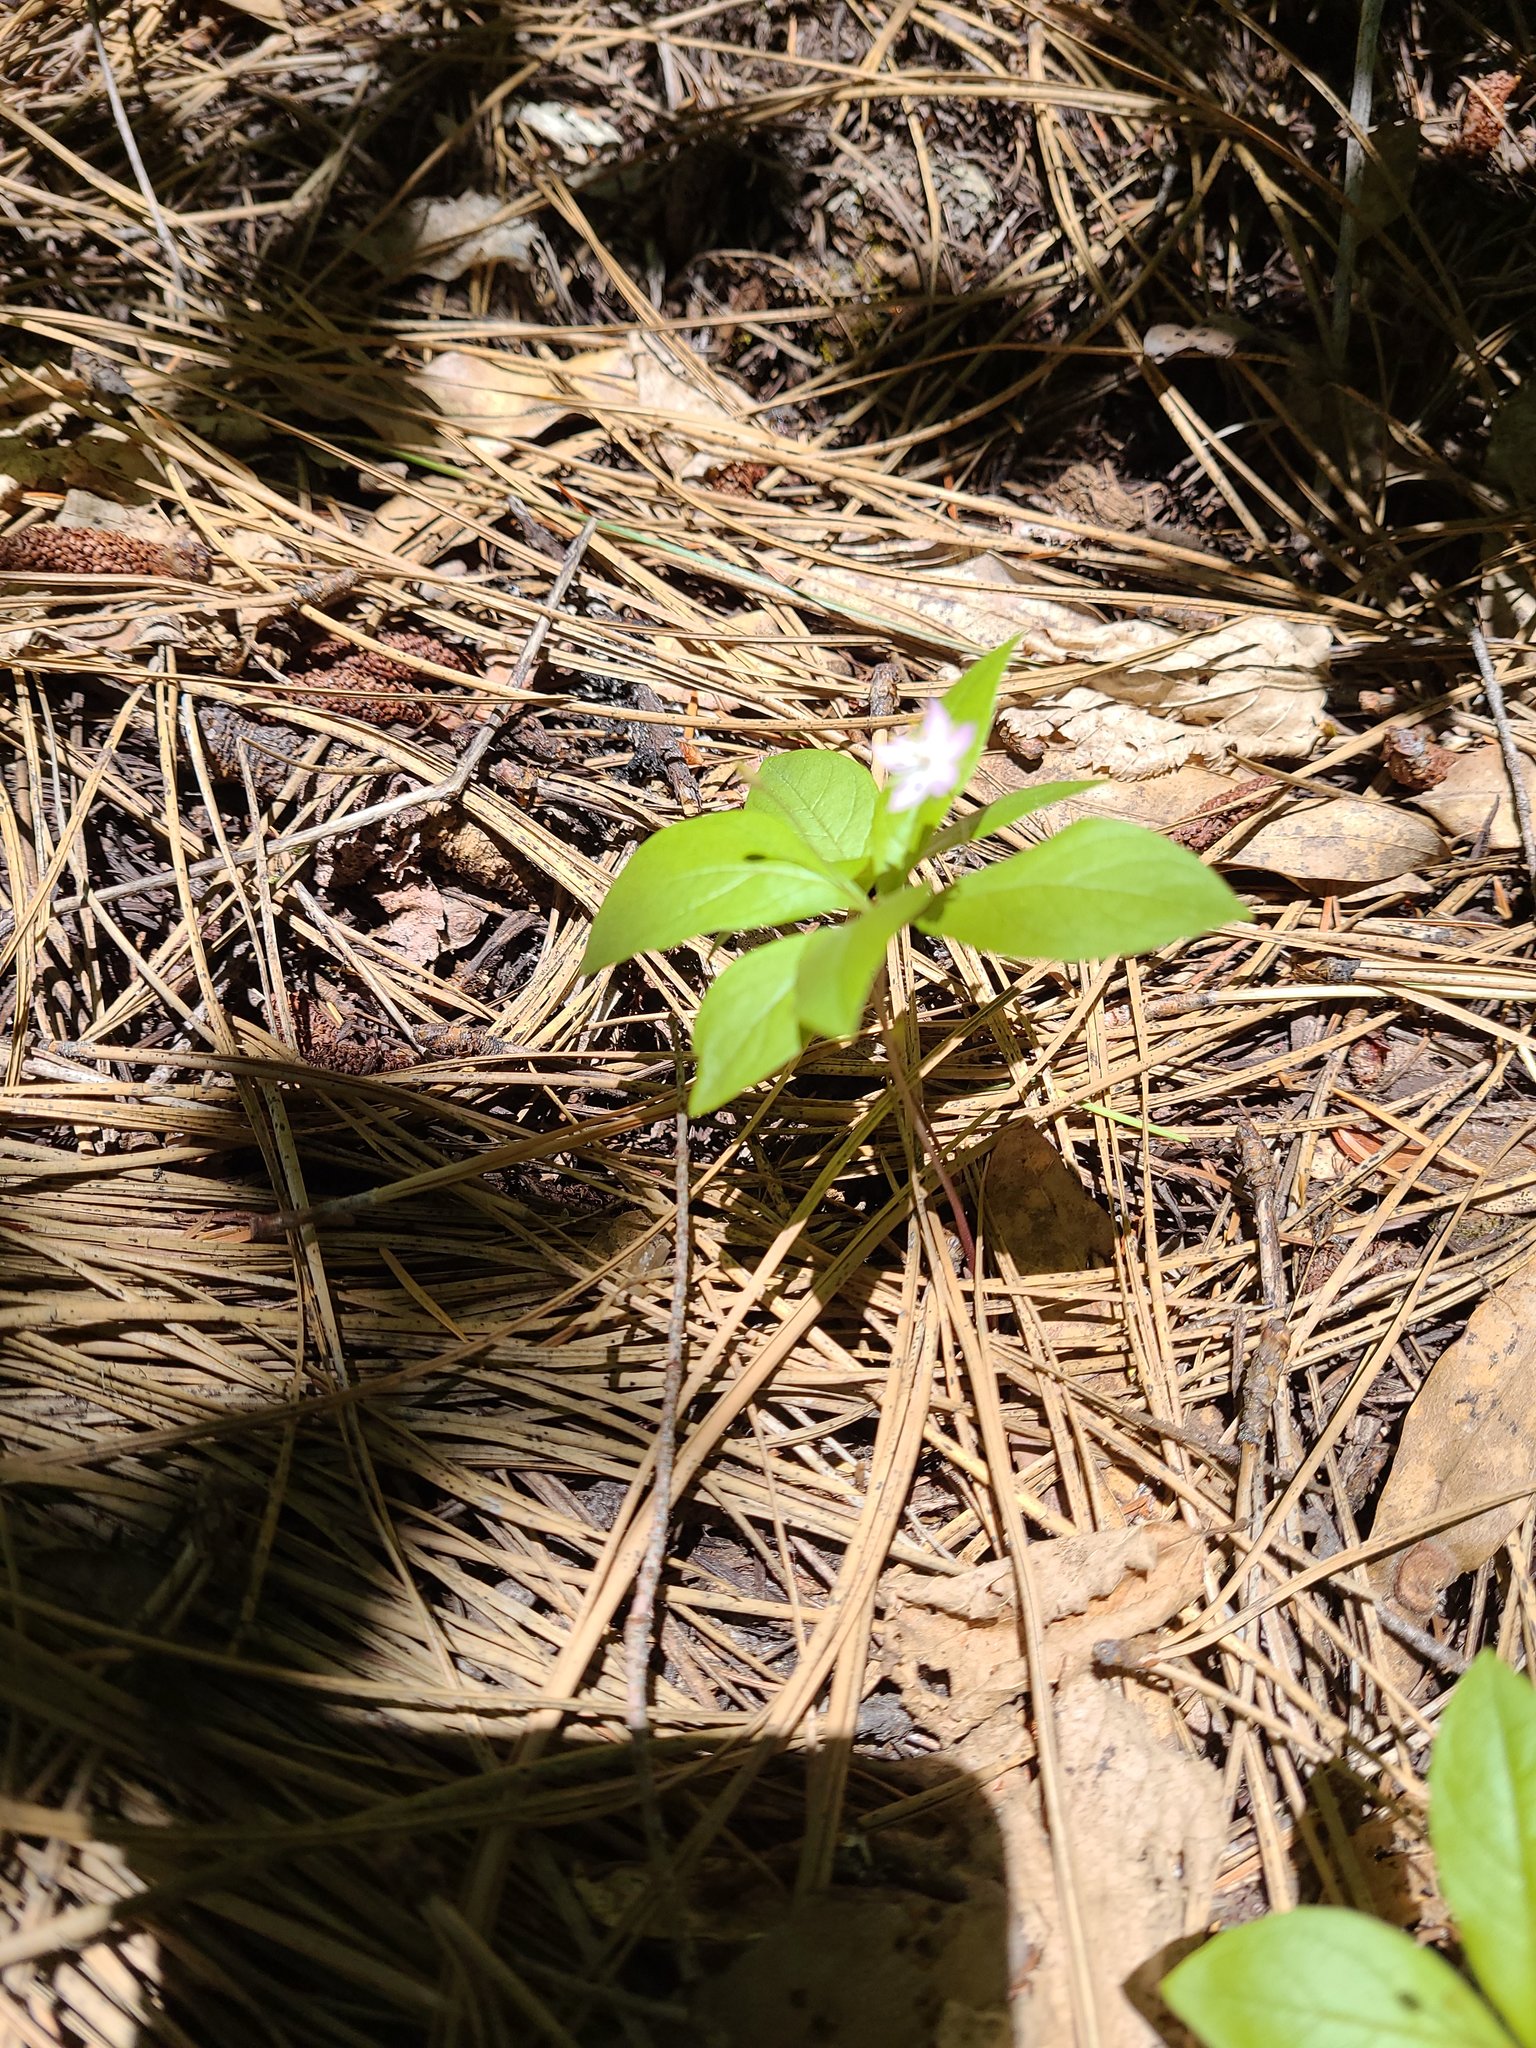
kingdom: Plantae
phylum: Tracheophyta
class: Magnoliopsida
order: Ericales
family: Primulaceae
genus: Lysimachia
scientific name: Lysimachia latifolia
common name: Pacific starflower
